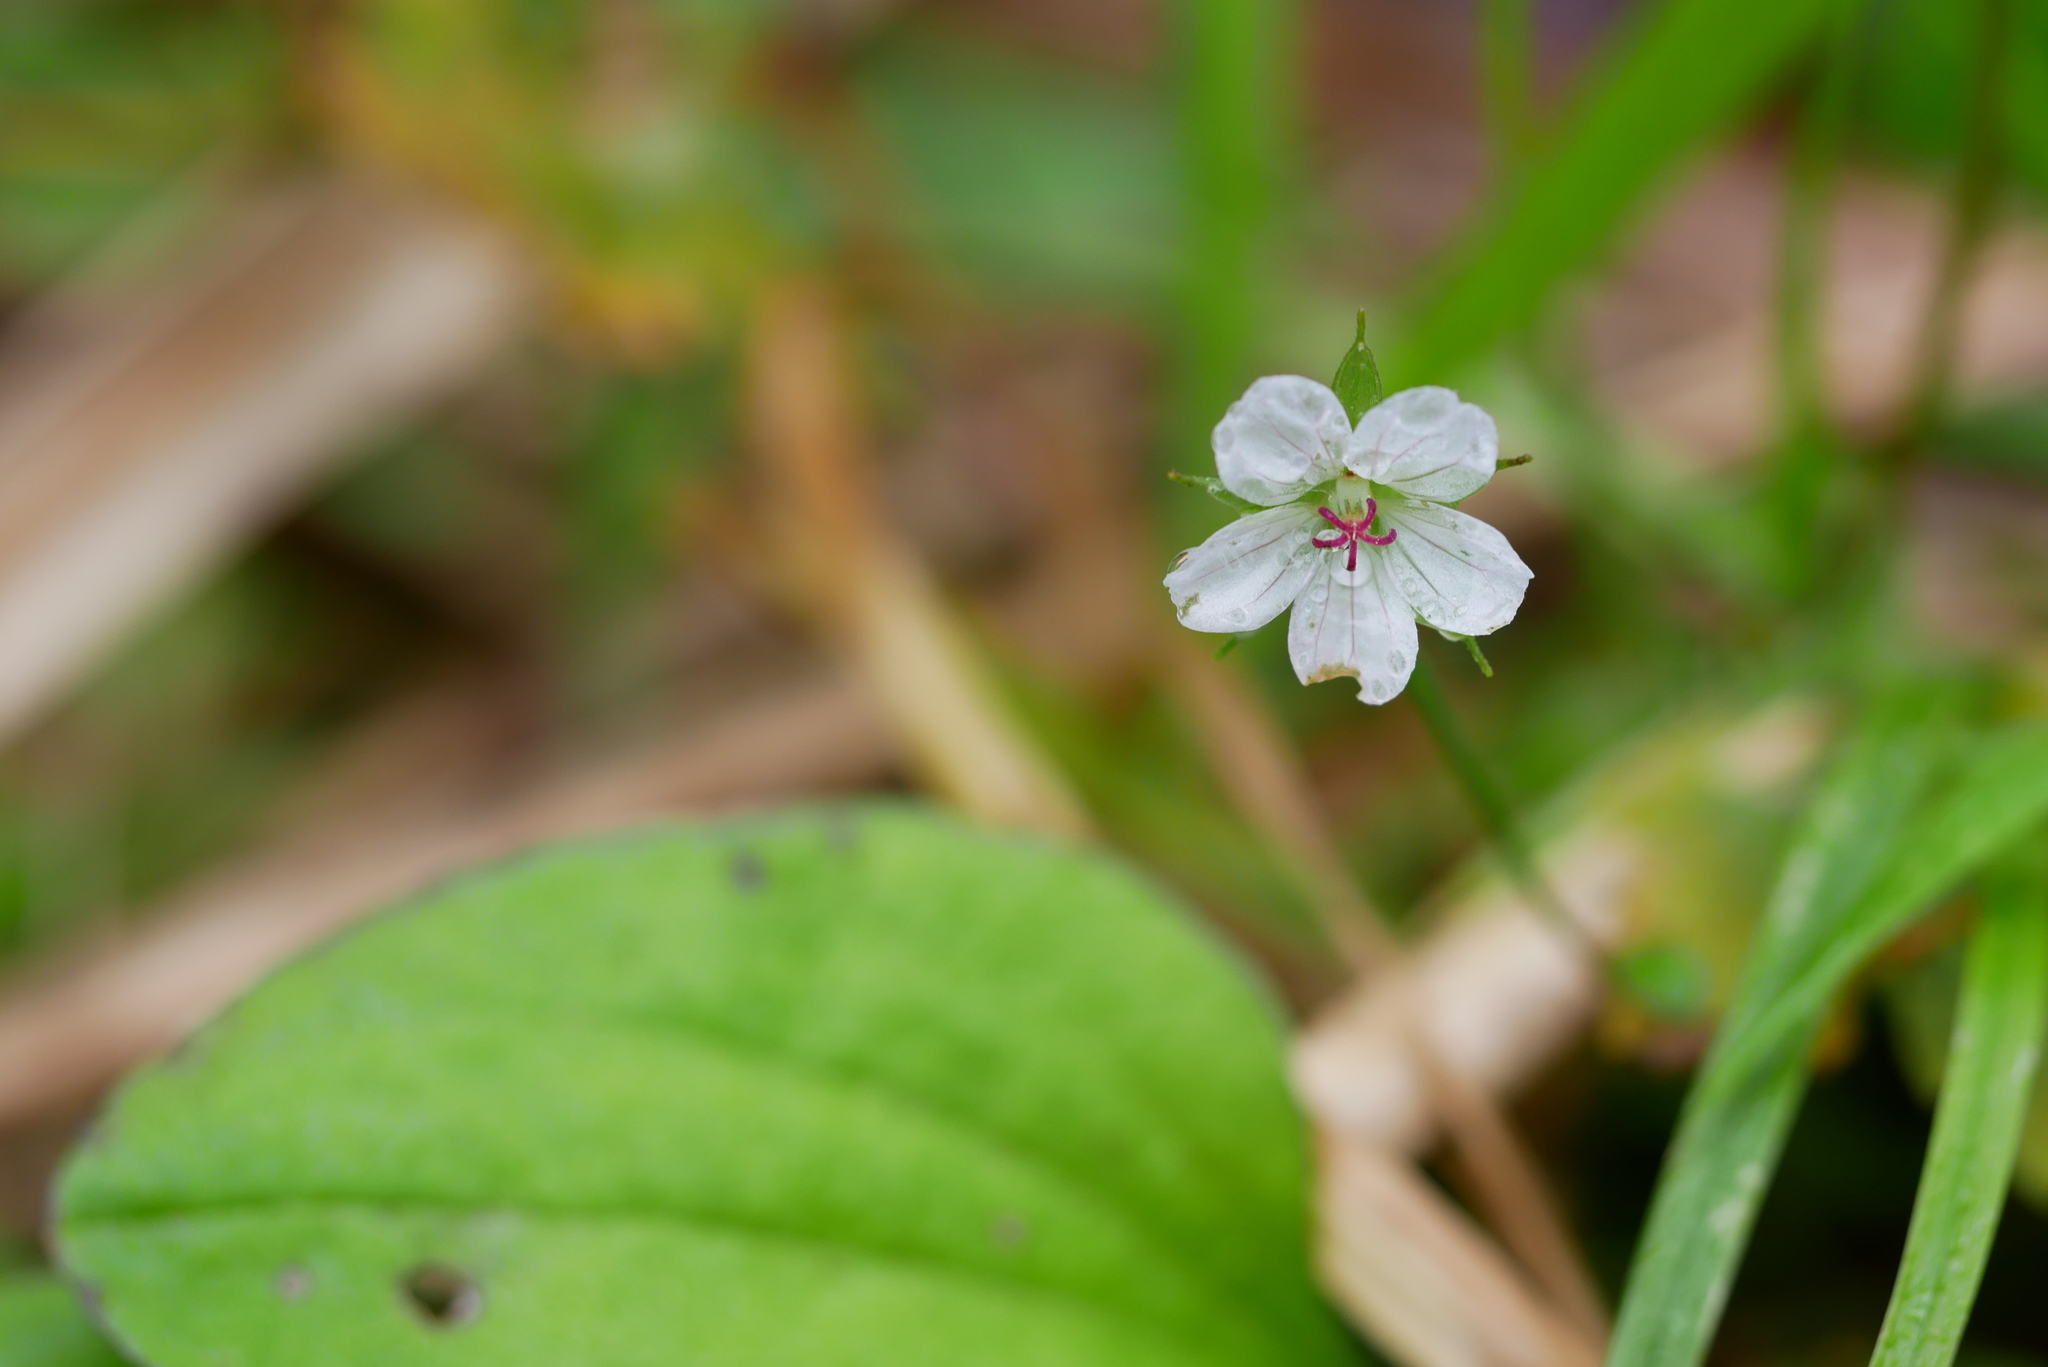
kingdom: Plantae
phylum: Tracheophyta
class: Magnoliopsida
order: Geraniales
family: Geraniaceae
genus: Geranium
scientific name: Geranium wilfordii
